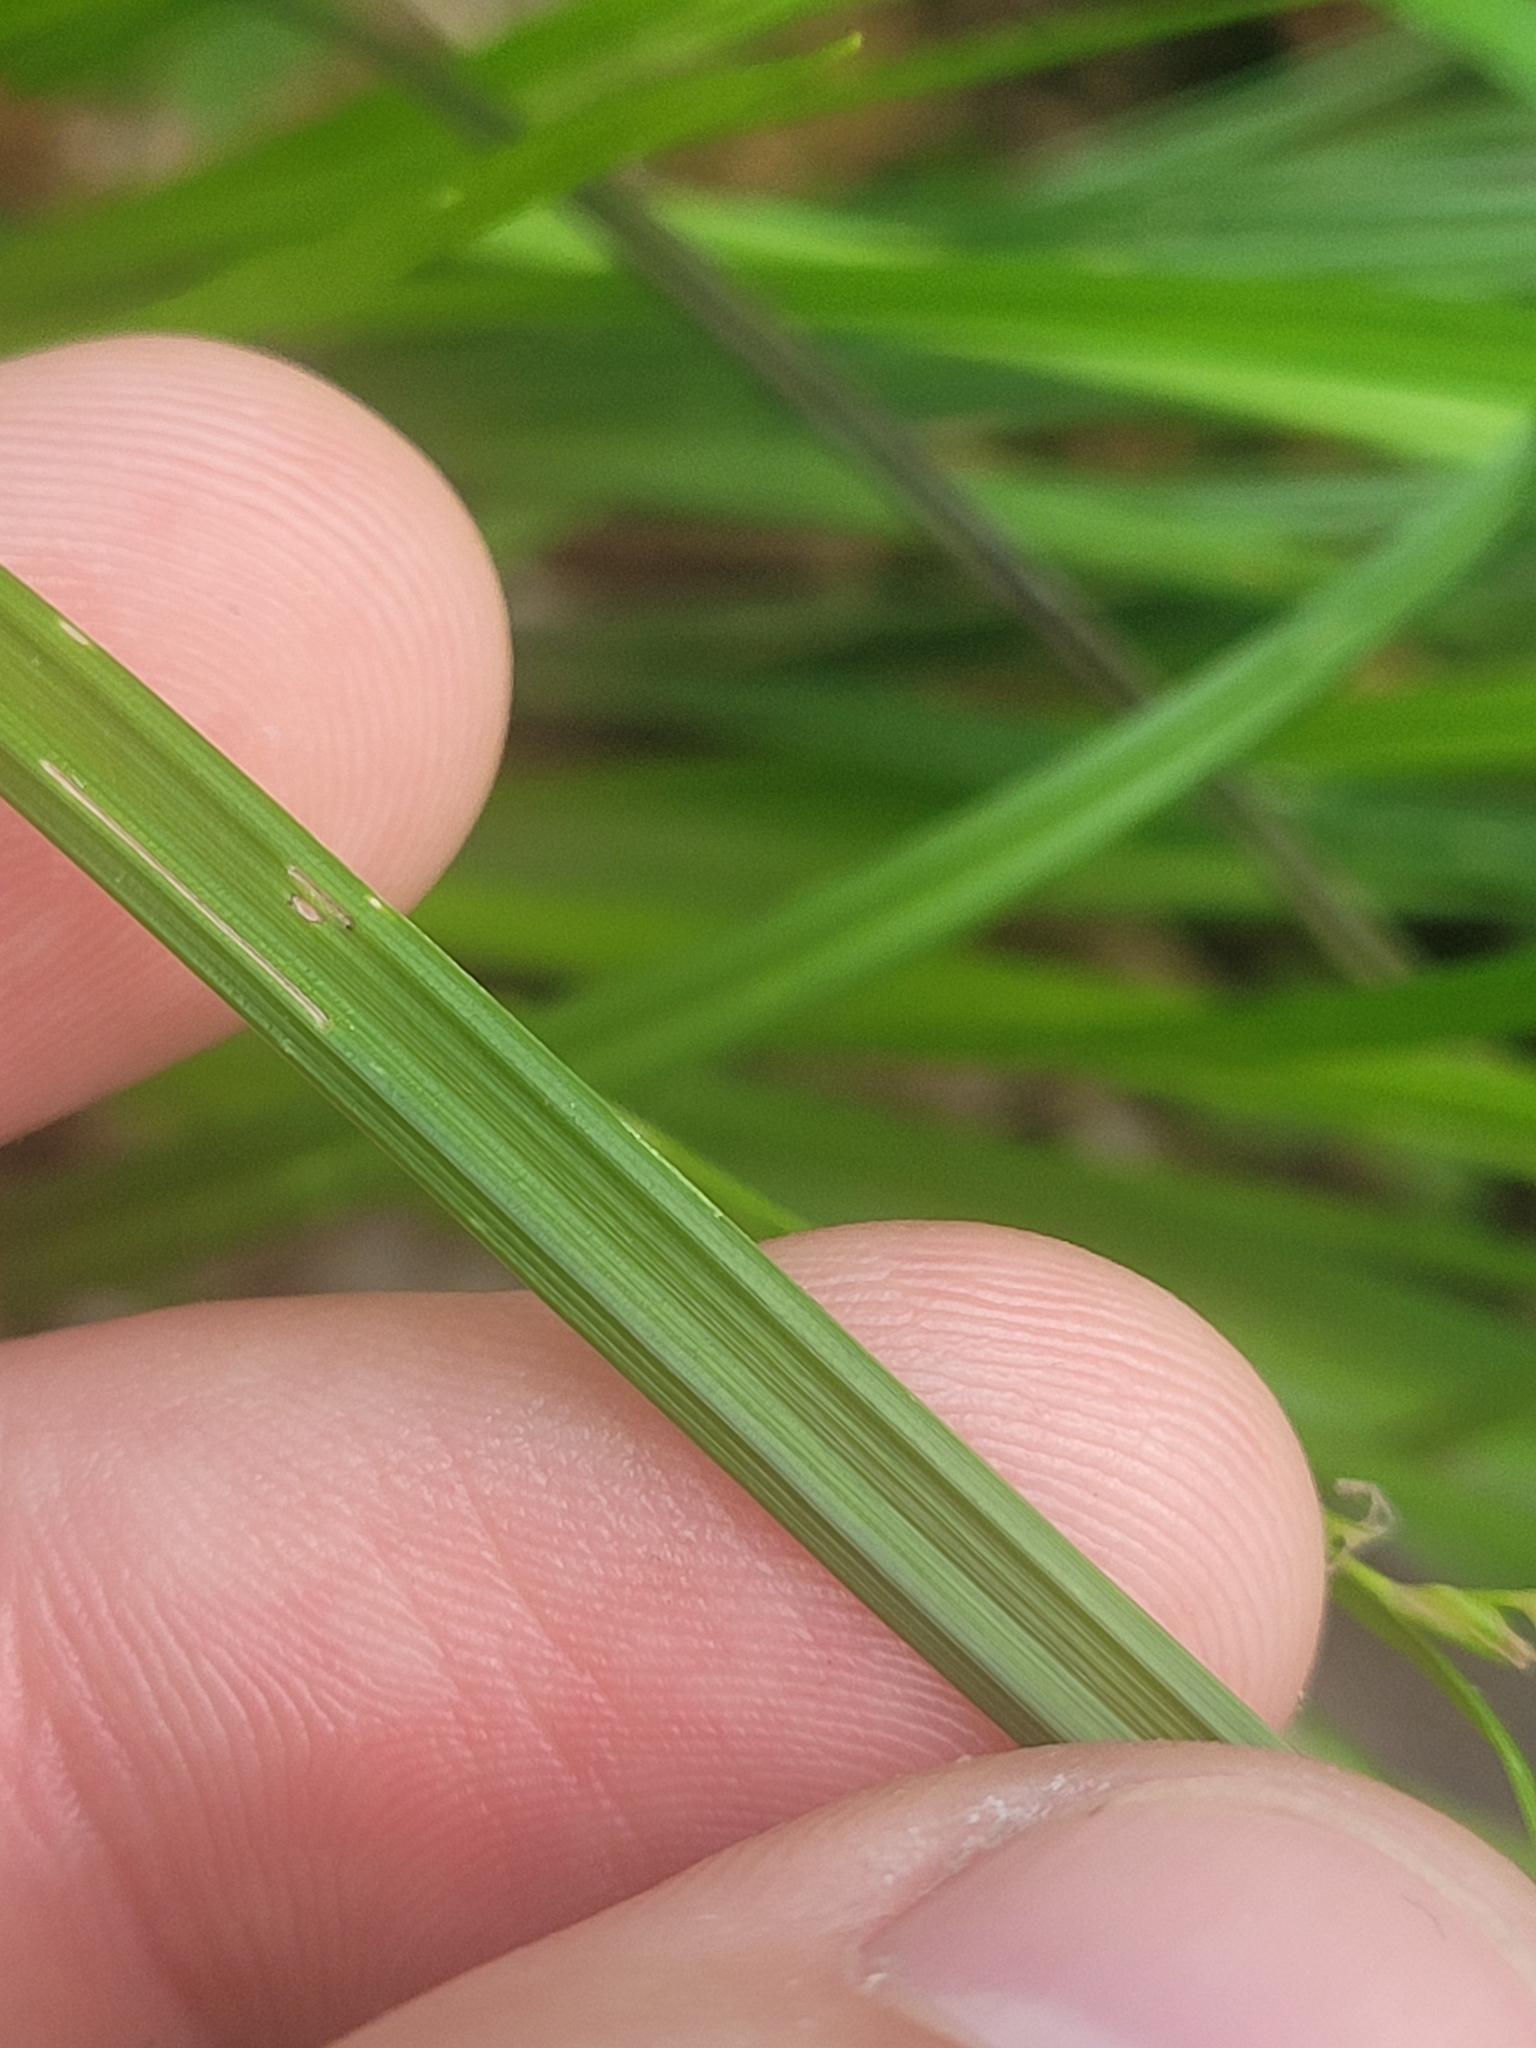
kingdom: Plantae
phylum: Tracheophyta
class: Liliopsida
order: Poales
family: Cyperaceae
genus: Carex
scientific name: Carex impressinervia
